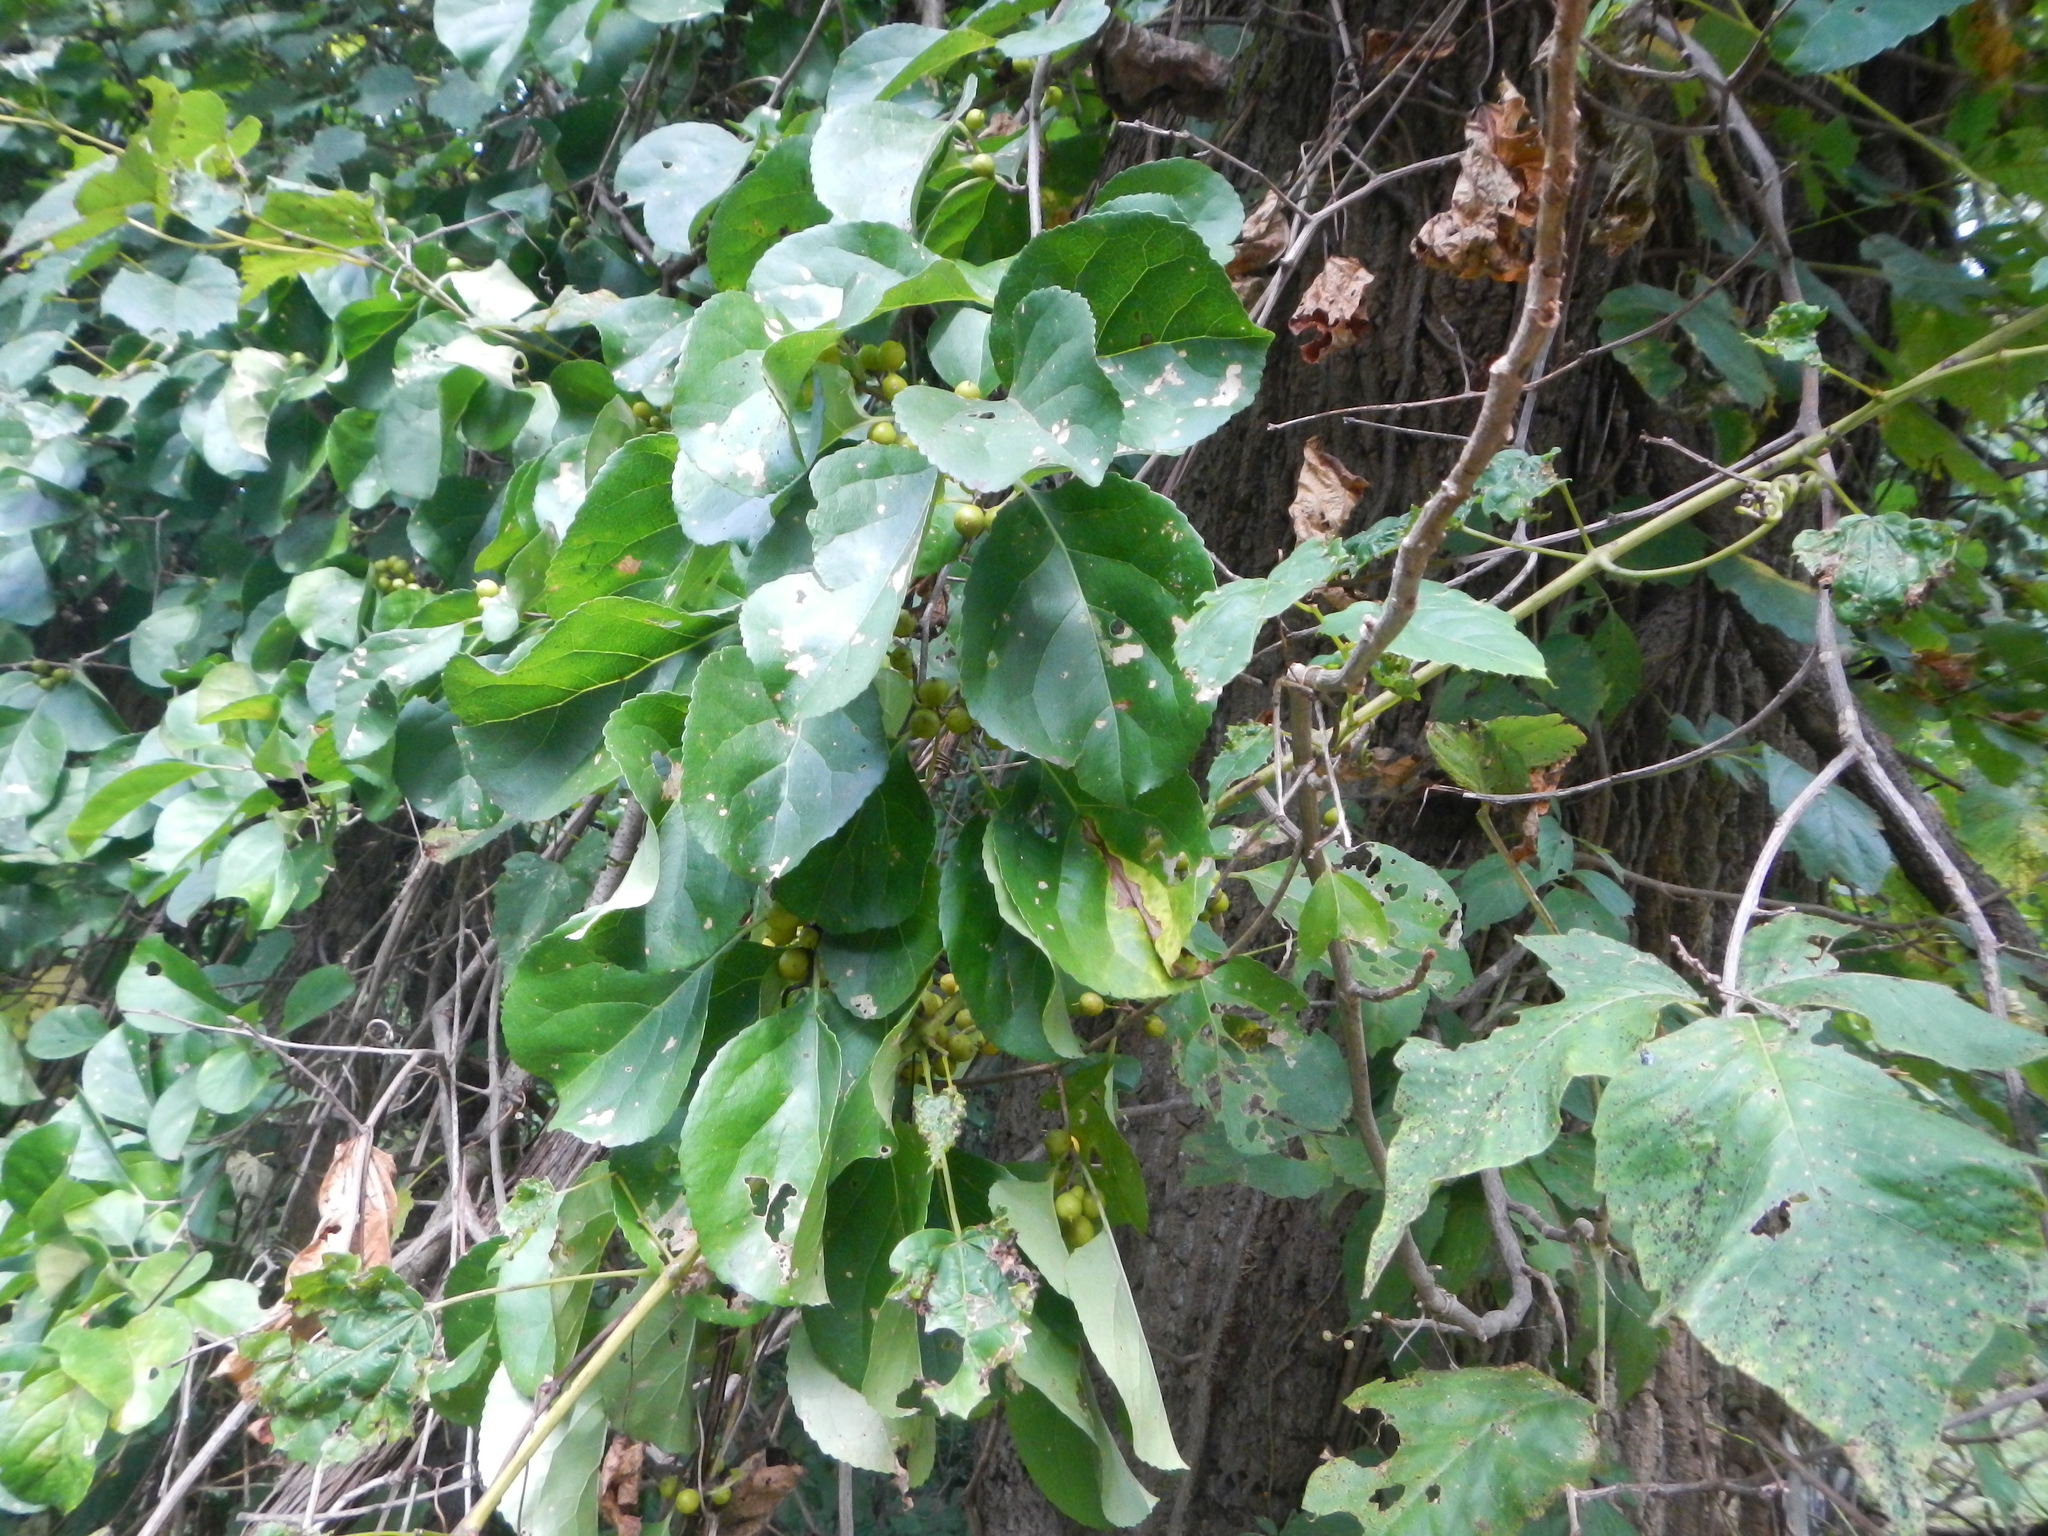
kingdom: Plantae
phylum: Tracheophyta
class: Magnoliopsida
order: Celastrales
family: Celastraceae
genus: Celastrus
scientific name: Celastrus orbiculatus
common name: Oriental bittersweet
